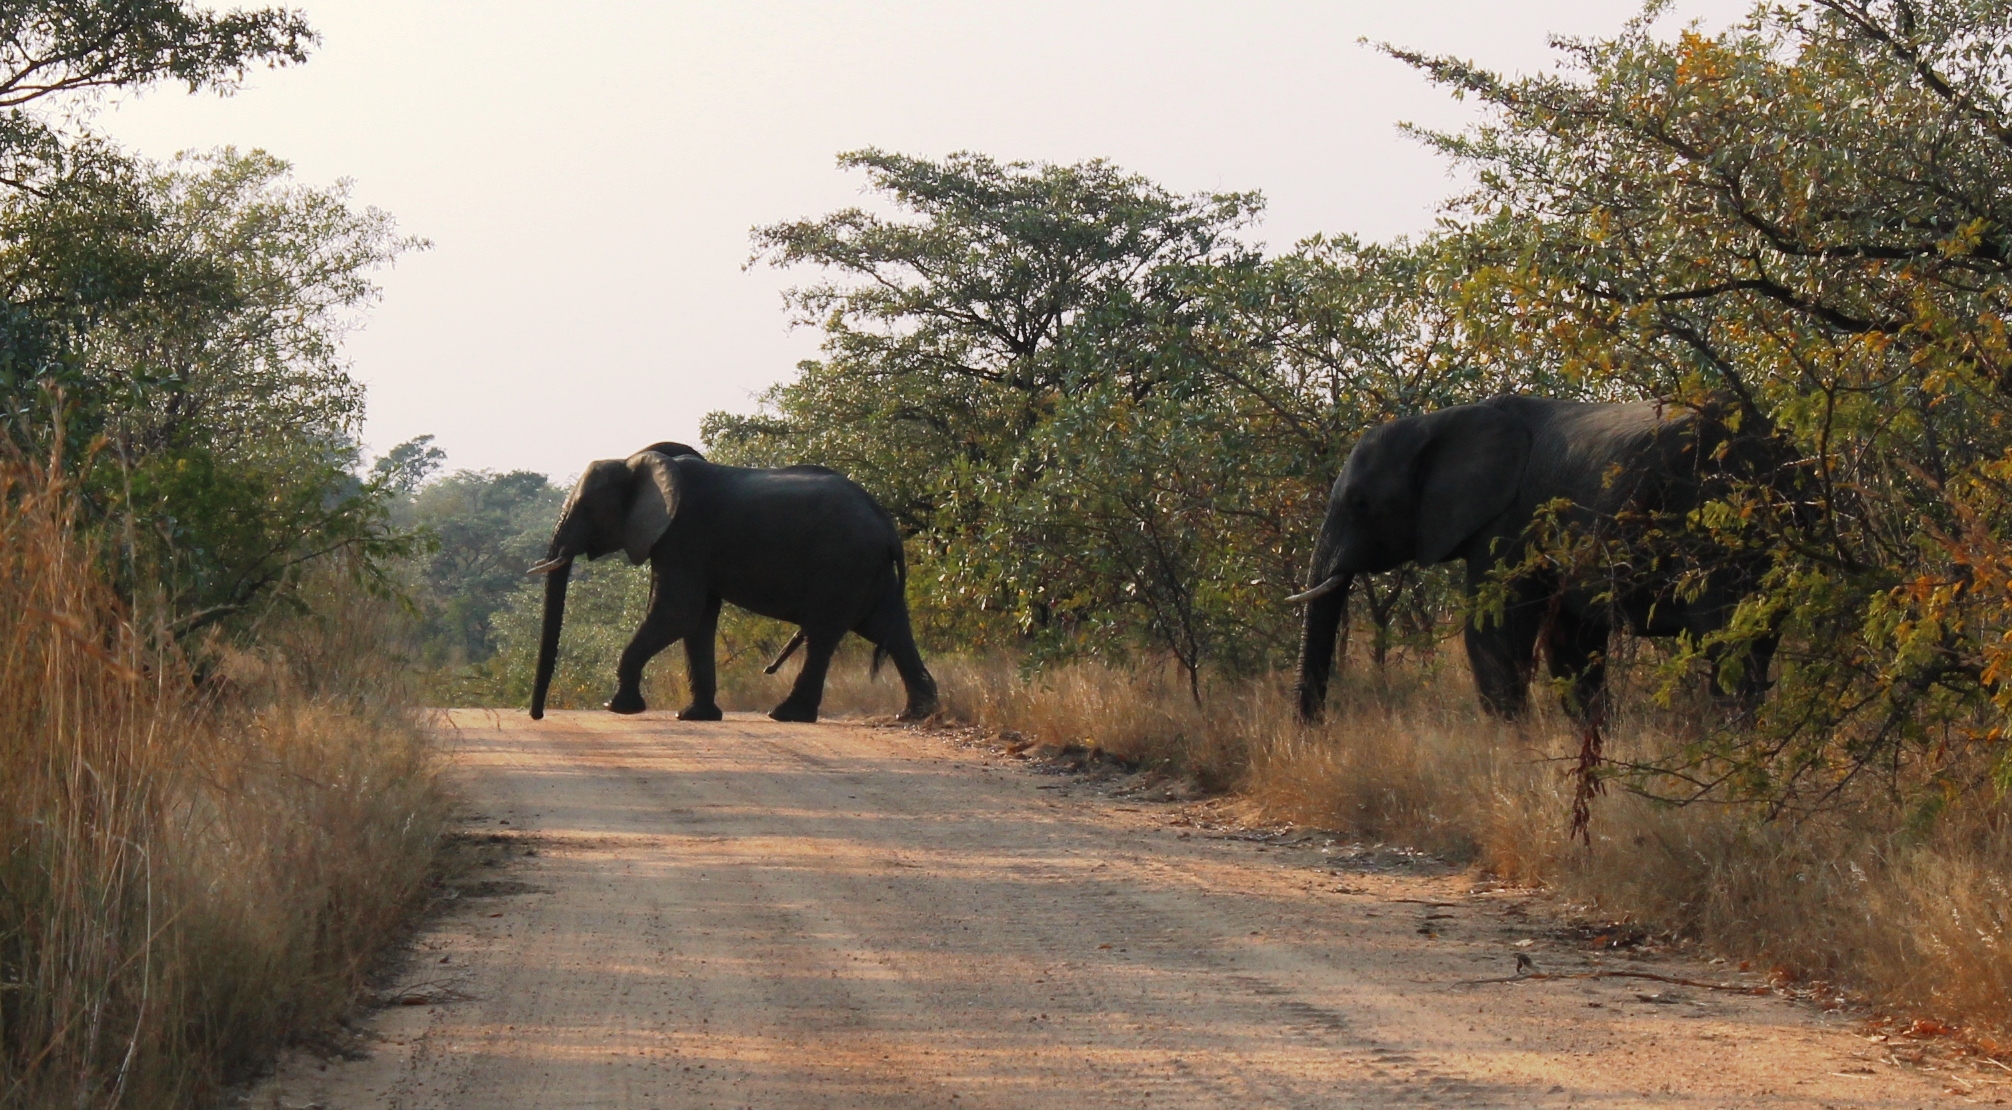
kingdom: Animalia
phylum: Chordata
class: Mammalia
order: Proboscidea
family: Elephantidae
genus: Loxodonta
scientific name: Loxodonta africana
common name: African elephant
